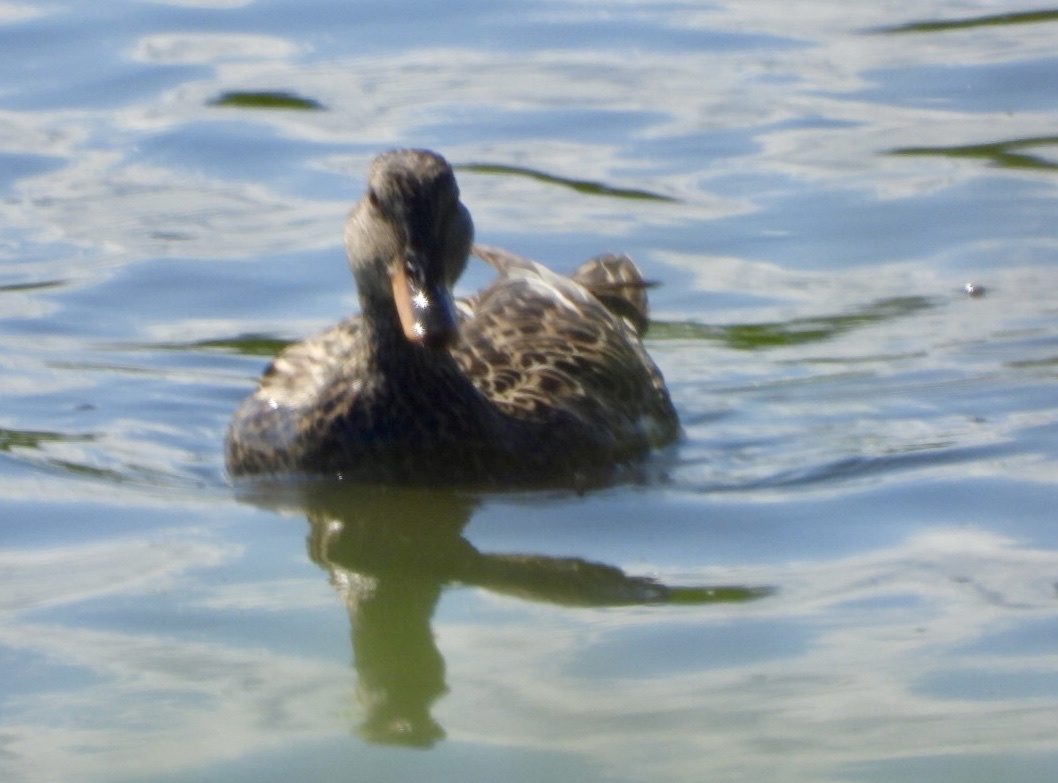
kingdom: Animalia
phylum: Chordata
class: Aves
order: Anseriformes
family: Anatidae
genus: Mareca
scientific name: Mareca strepera
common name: Gadwall
